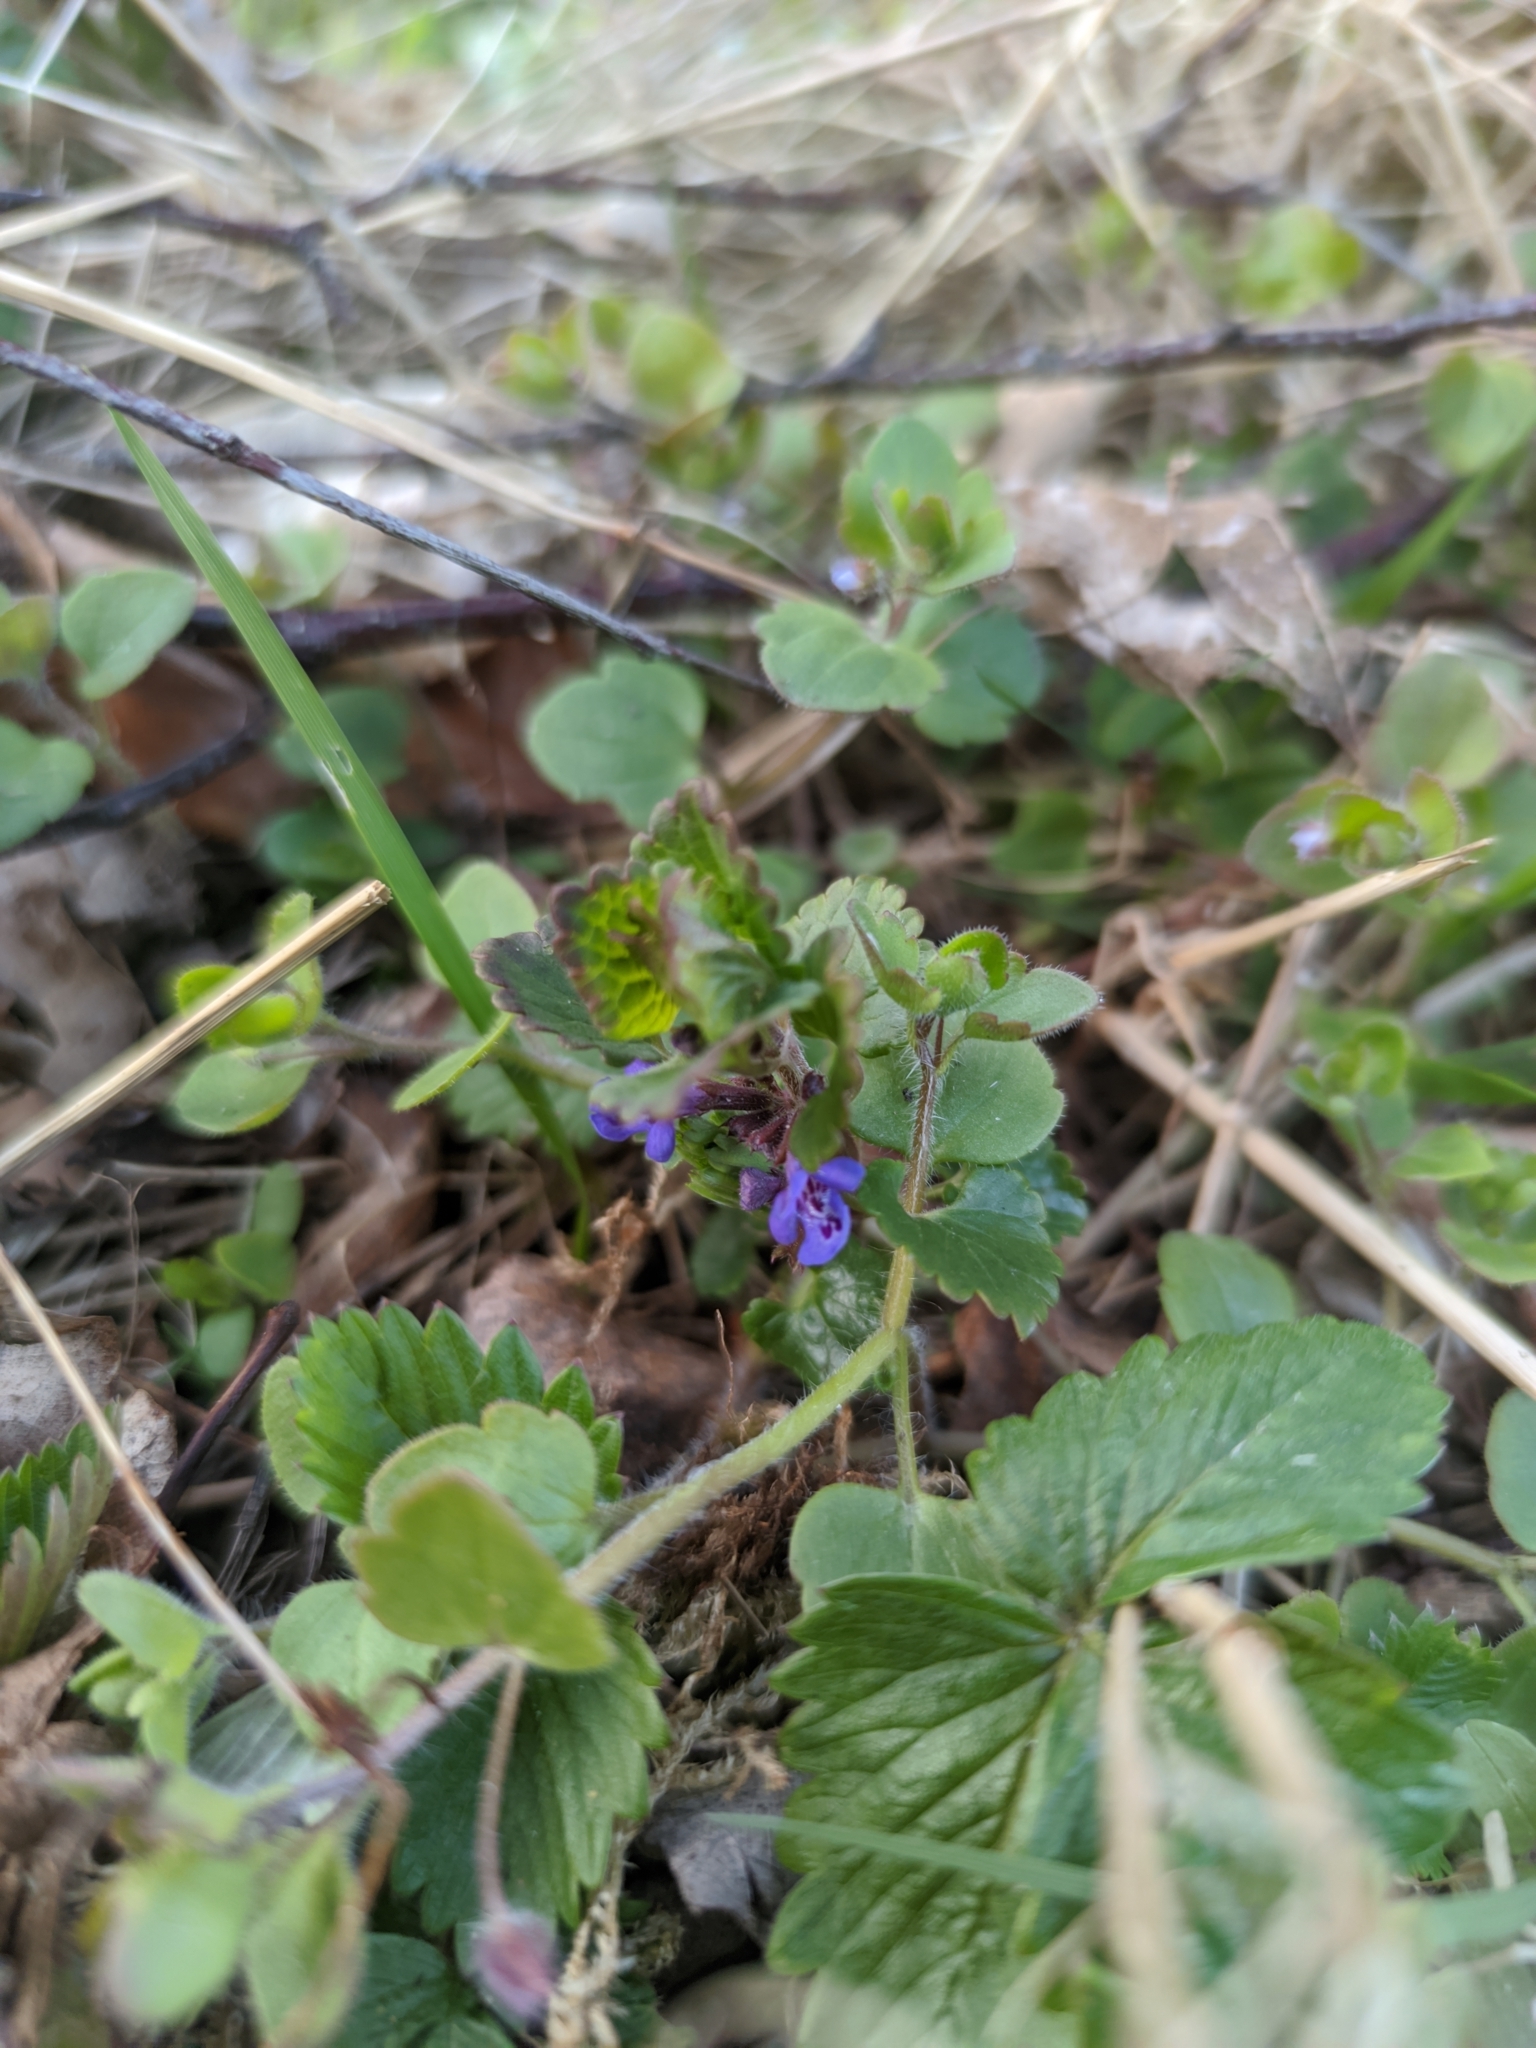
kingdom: Plantae
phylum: Tracheophyta
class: Magnoliopsida
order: Lamiales
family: Lamiaceae
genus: Glechoma
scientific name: Glechoma hederacea
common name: Ground ivy
